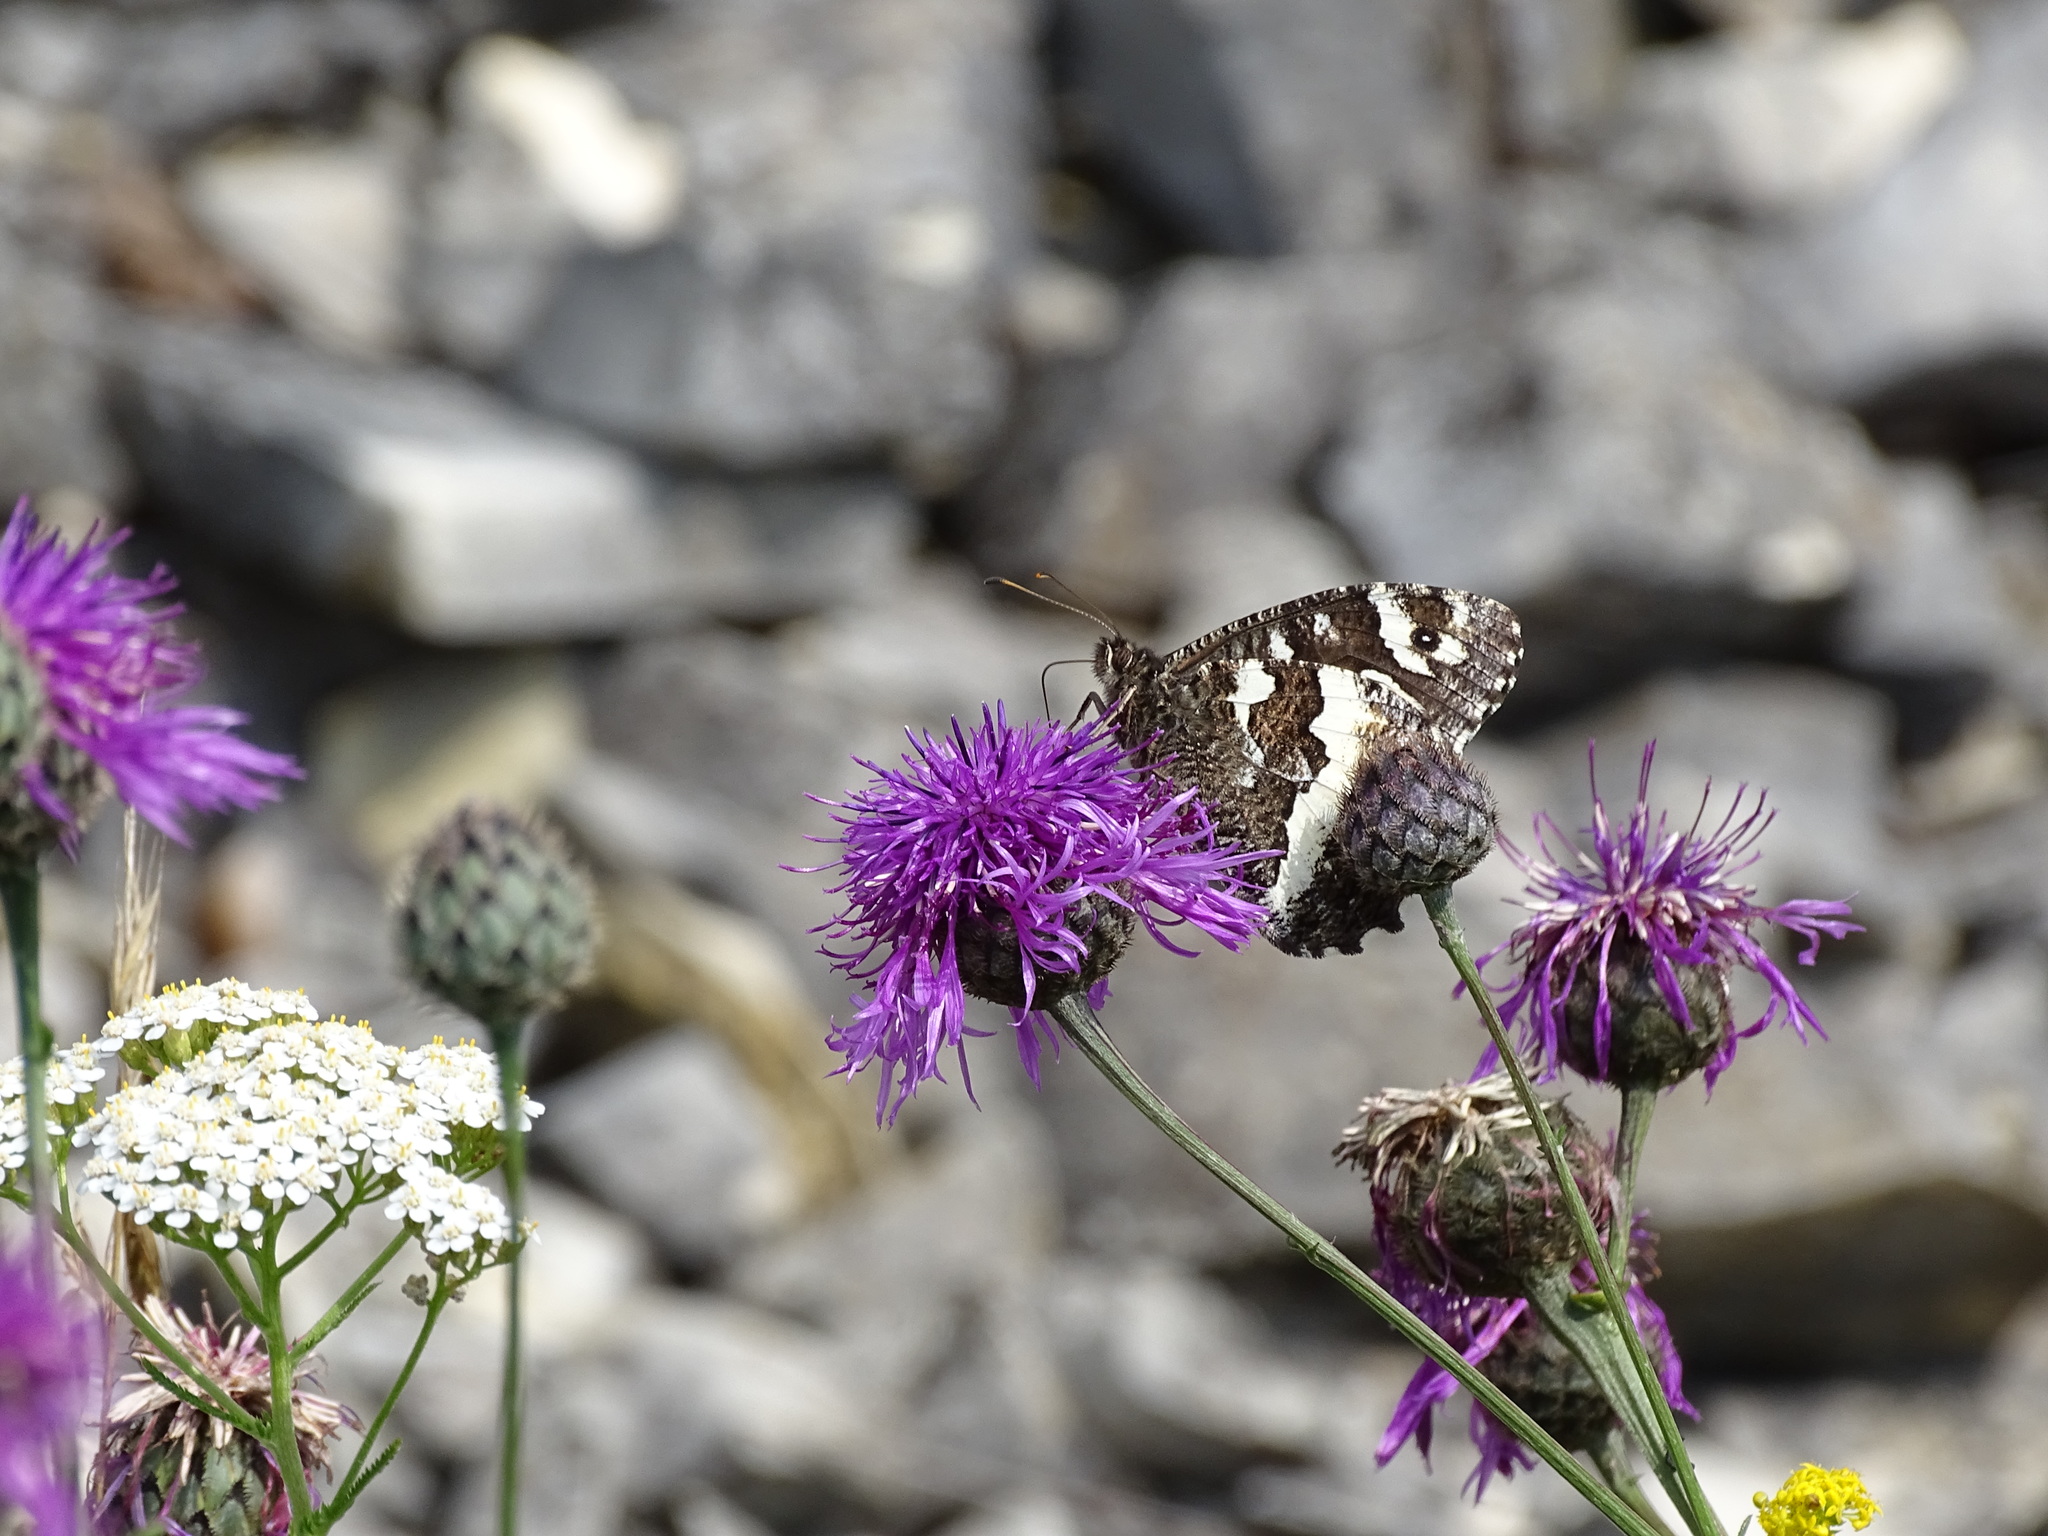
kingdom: Animalia
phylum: Arthropoda
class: Insecta
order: Lepidoptera
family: Lycaenidae
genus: Loweia
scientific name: Loweia tityrus
